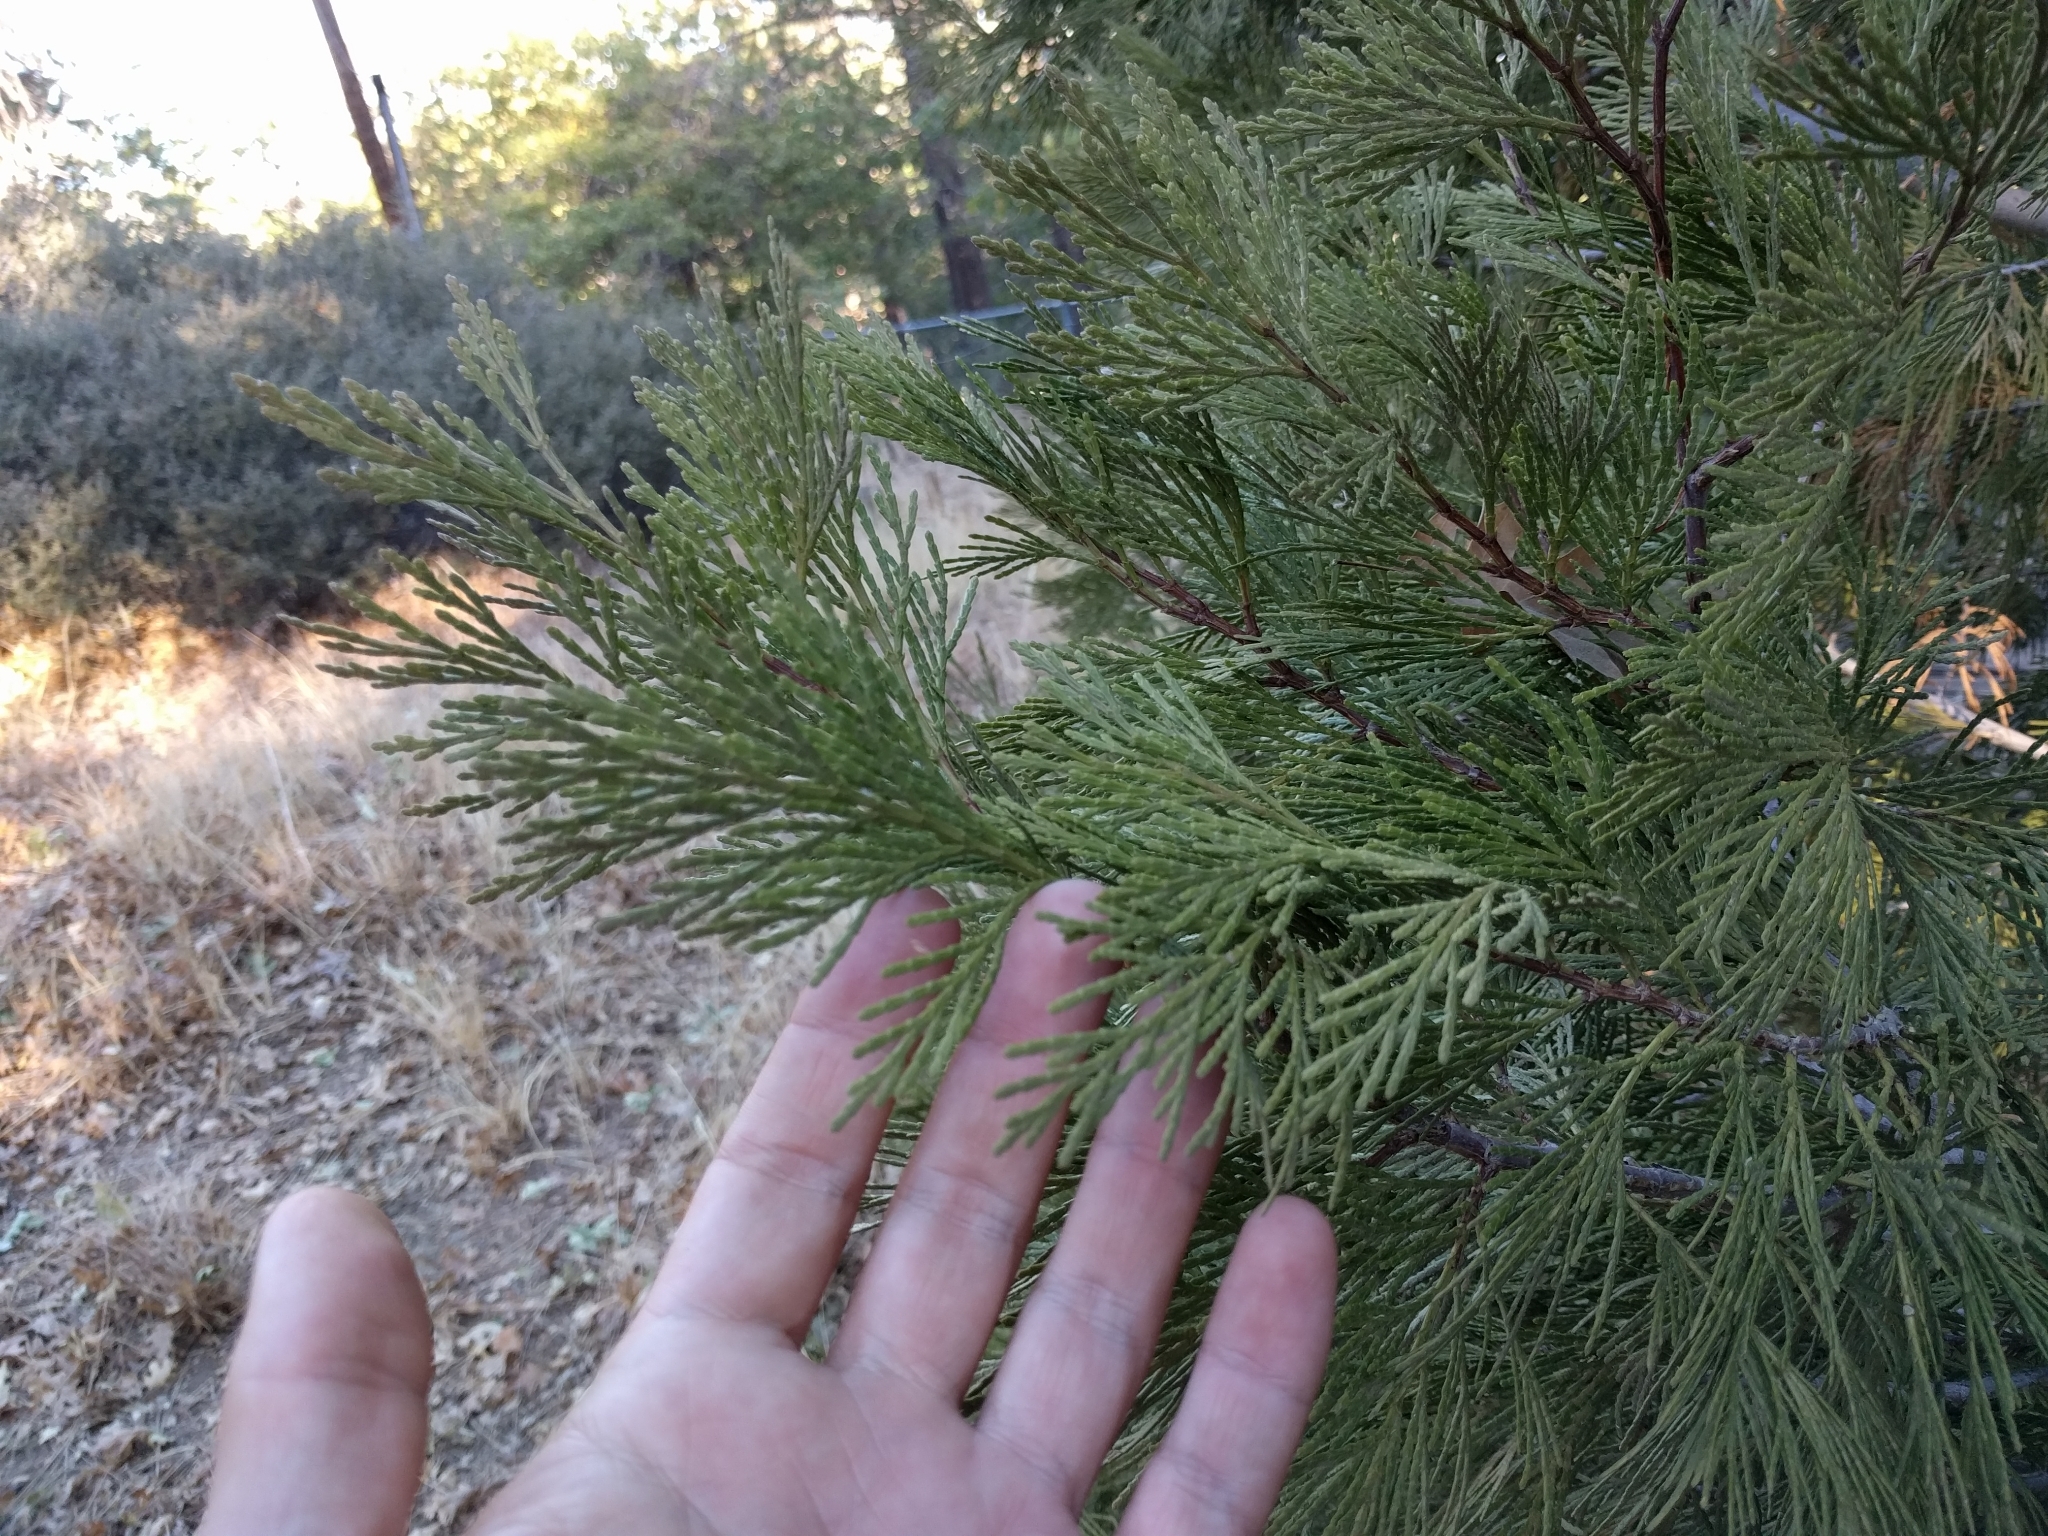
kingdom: Plantae
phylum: Tracheophyta
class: Pinopsida
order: Pinales
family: Cupressaceae
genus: Calocedrus
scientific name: Calocedrus decurrens
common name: Californian incense-cedar
